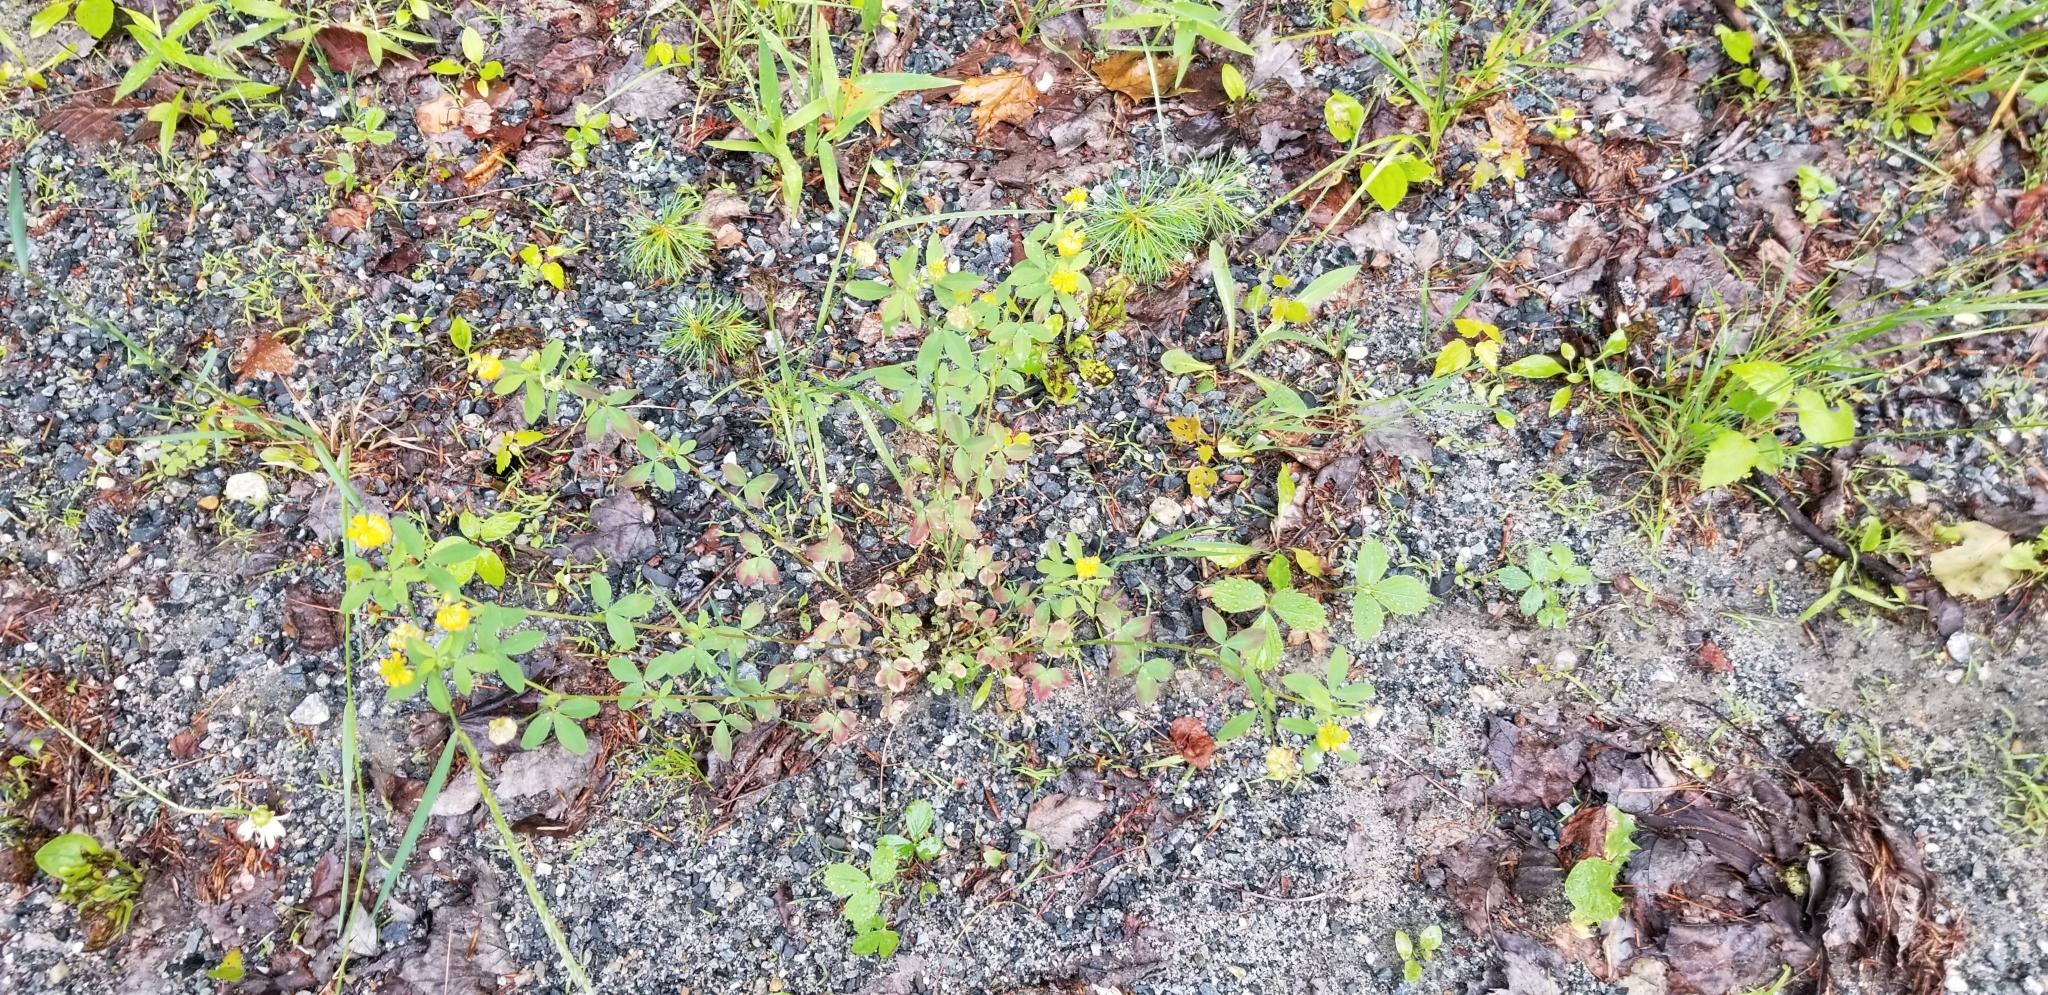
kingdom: Plantae
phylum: Tracheophyta
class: Magnoliopsida
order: Fabales
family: Fabaceae
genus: Trifolium
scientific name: Trifolium aureum
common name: Golden clover
